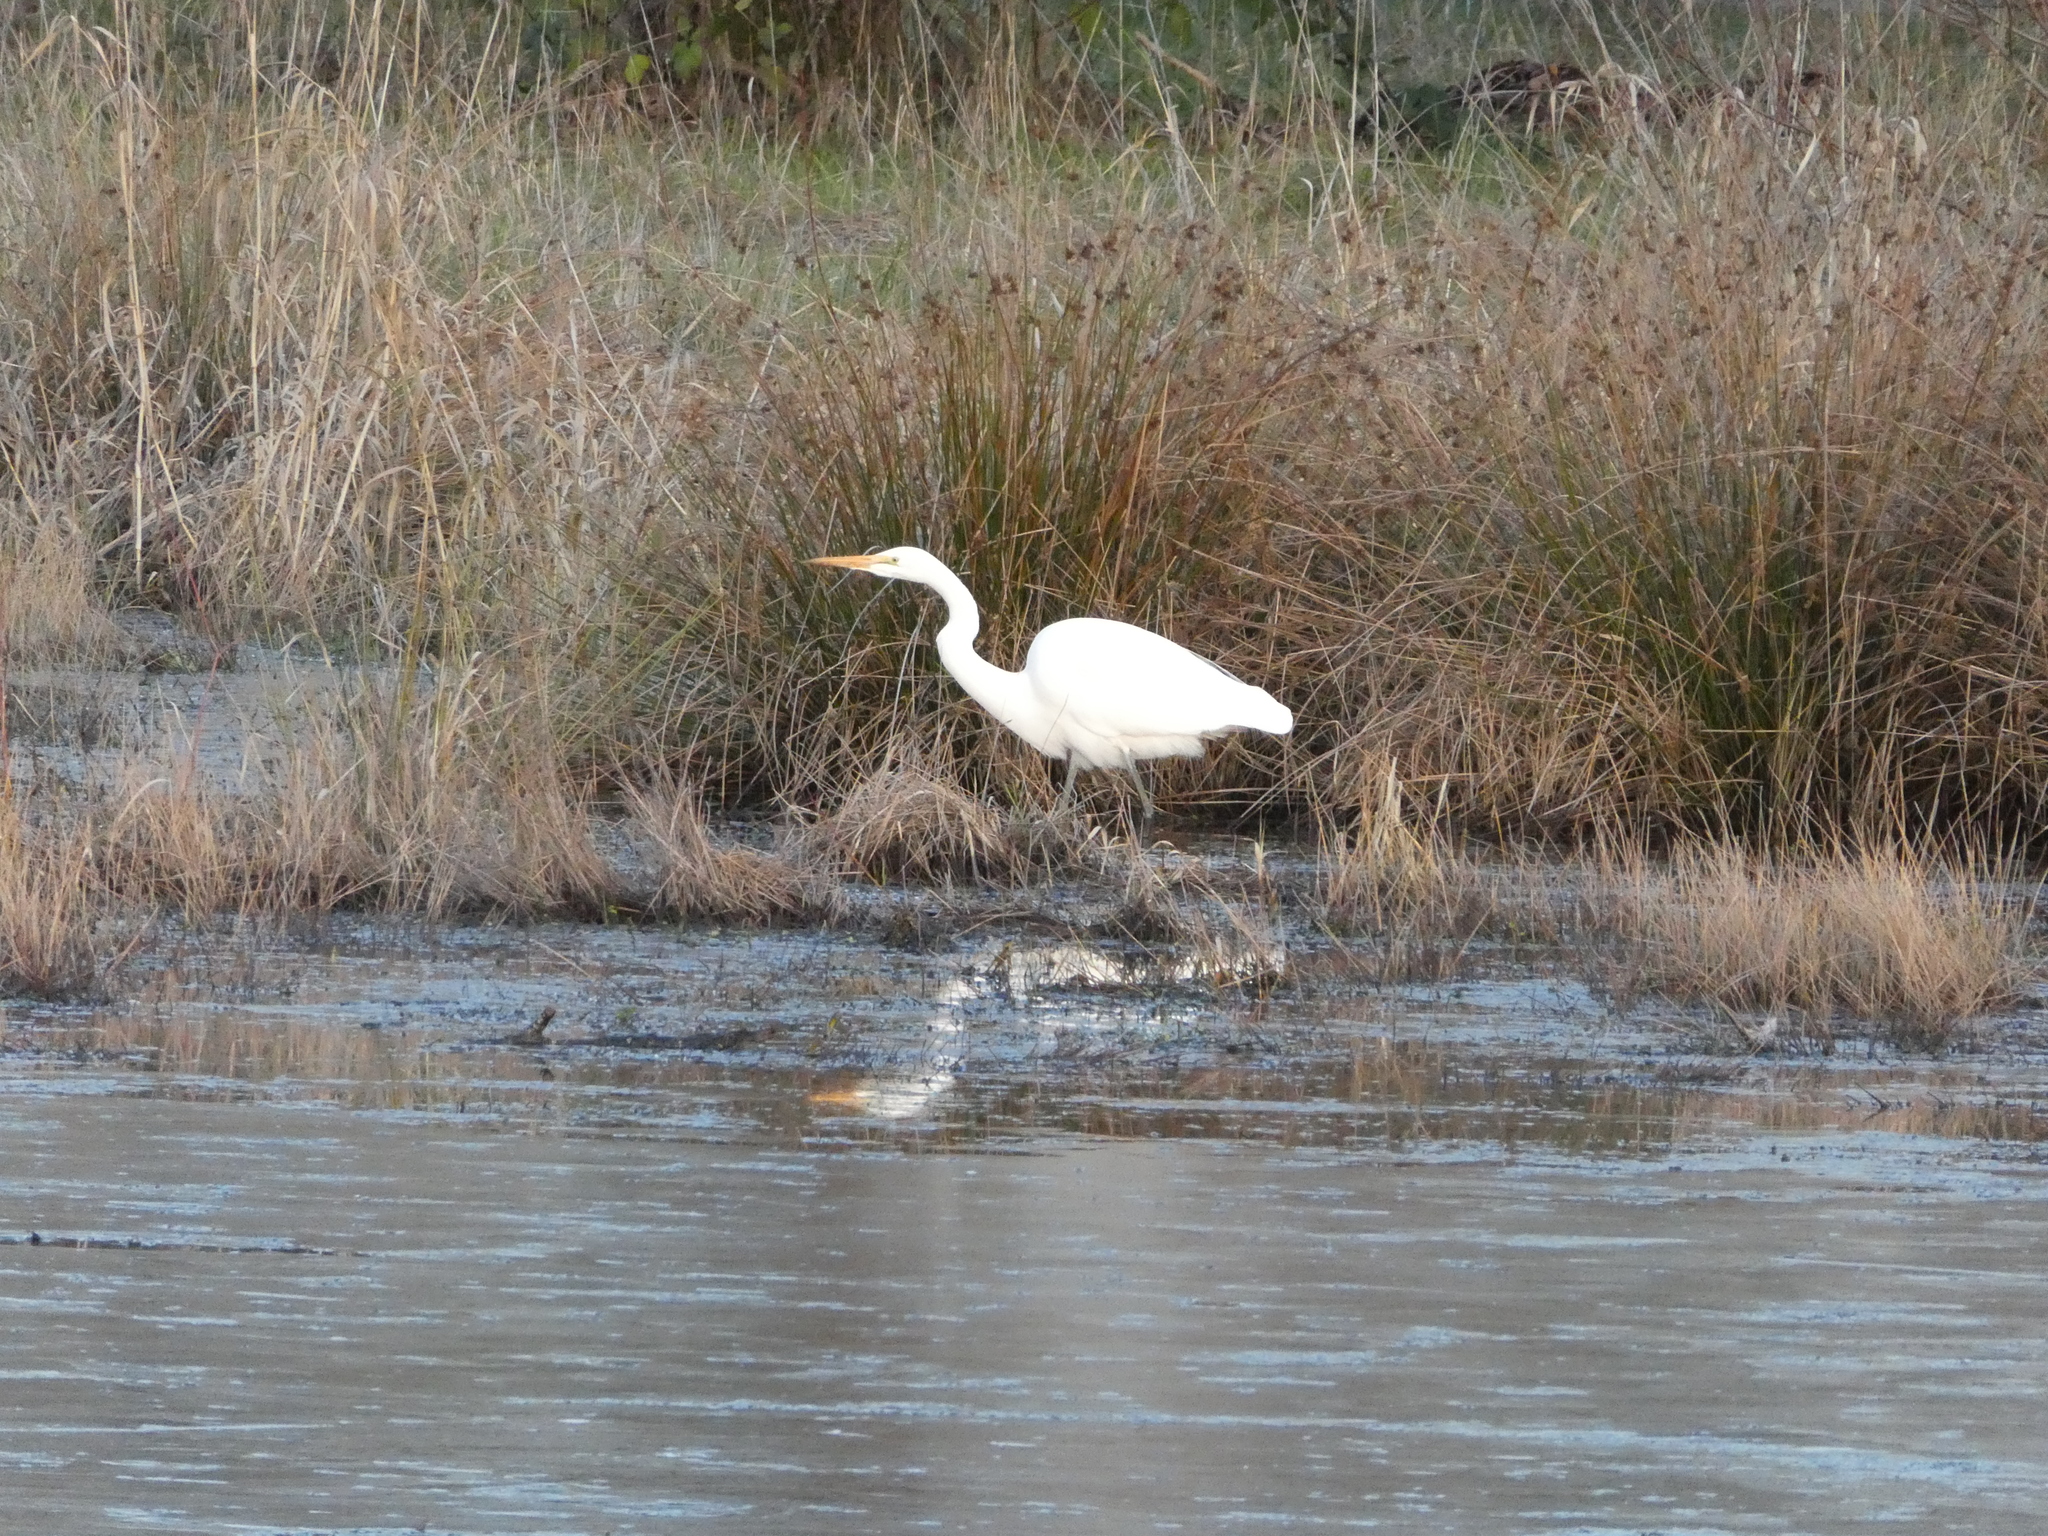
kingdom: Animalia
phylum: Chordata
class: Aves
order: Pelecaniformes
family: Ardeidae
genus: Ardea
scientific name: Ardea alba
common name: Great egret
